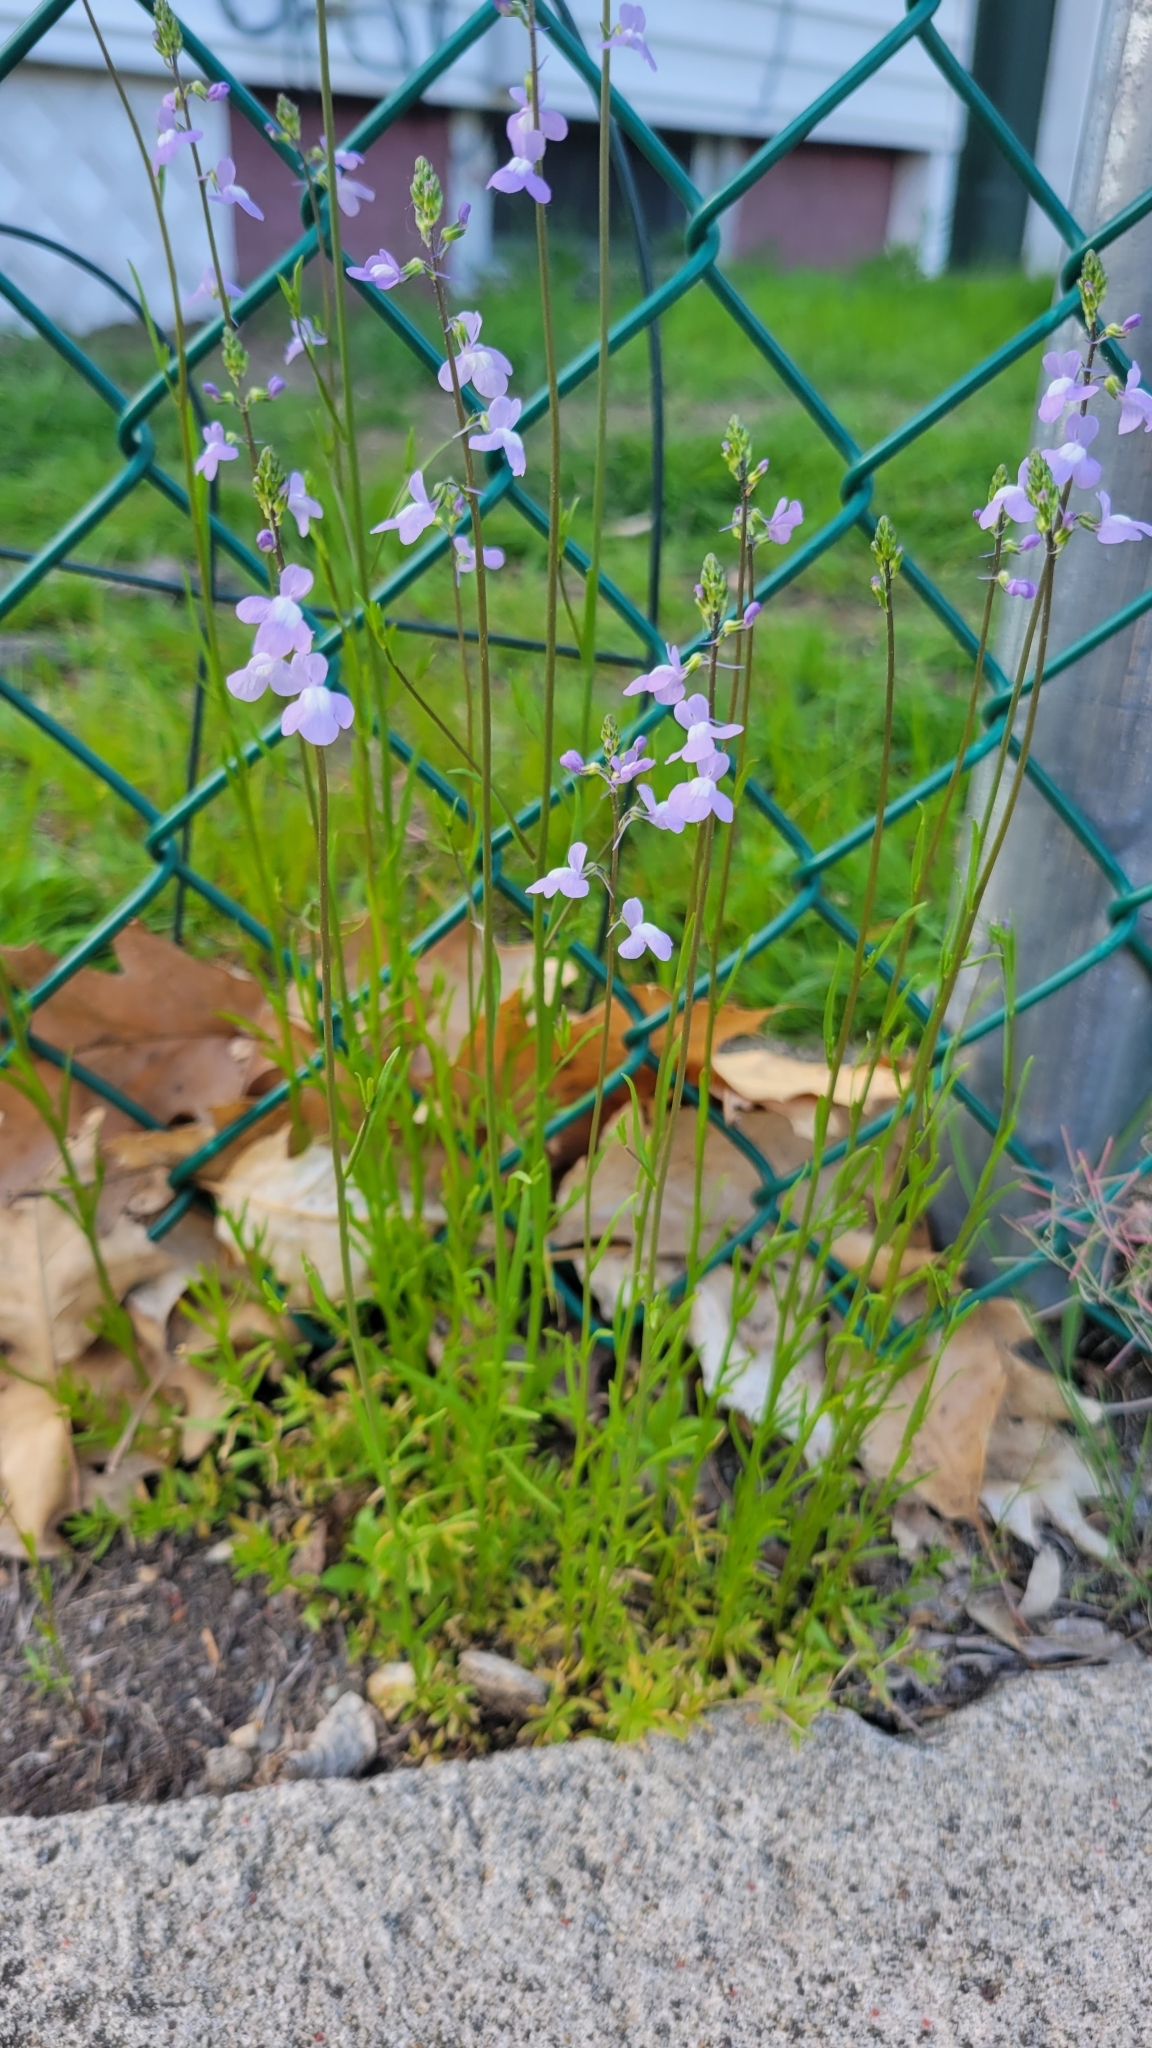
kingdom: Plantae
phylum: Tracheophyta
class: Magnoliopsida
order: Lamiales
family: Plantaginaceae
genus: Nuttallanthus
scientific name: Nuttallanthus canadensis
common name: Blue toadflax
